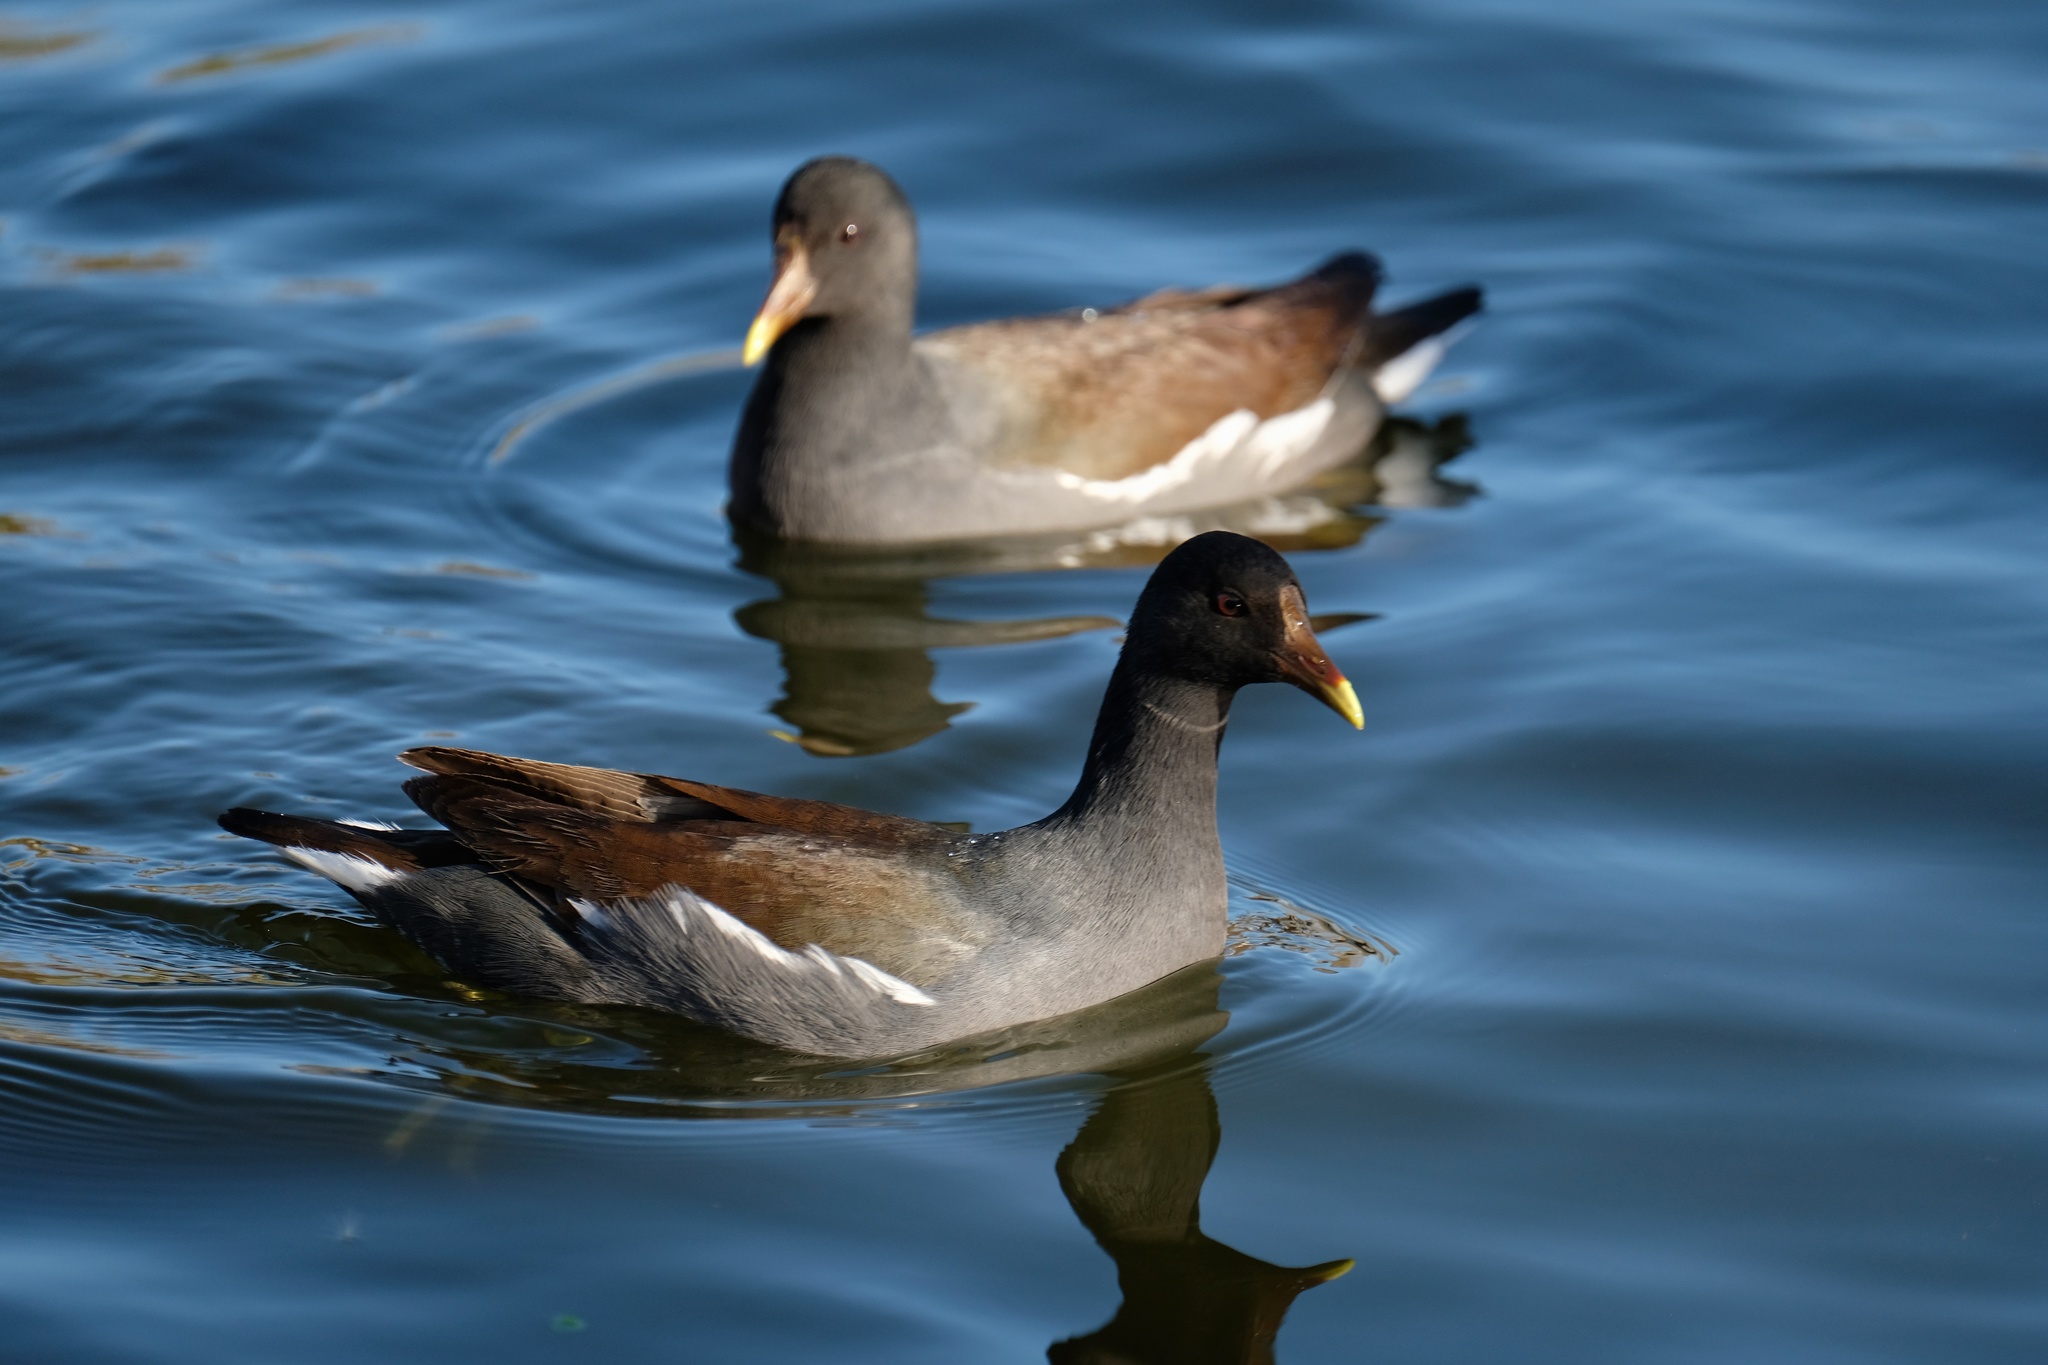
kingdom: Animalia
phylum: Chordata
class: Aves
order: Gruiformes
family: Rallidae
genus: Gallinula
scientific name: Gallinula chloropus
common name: Common moorhen
